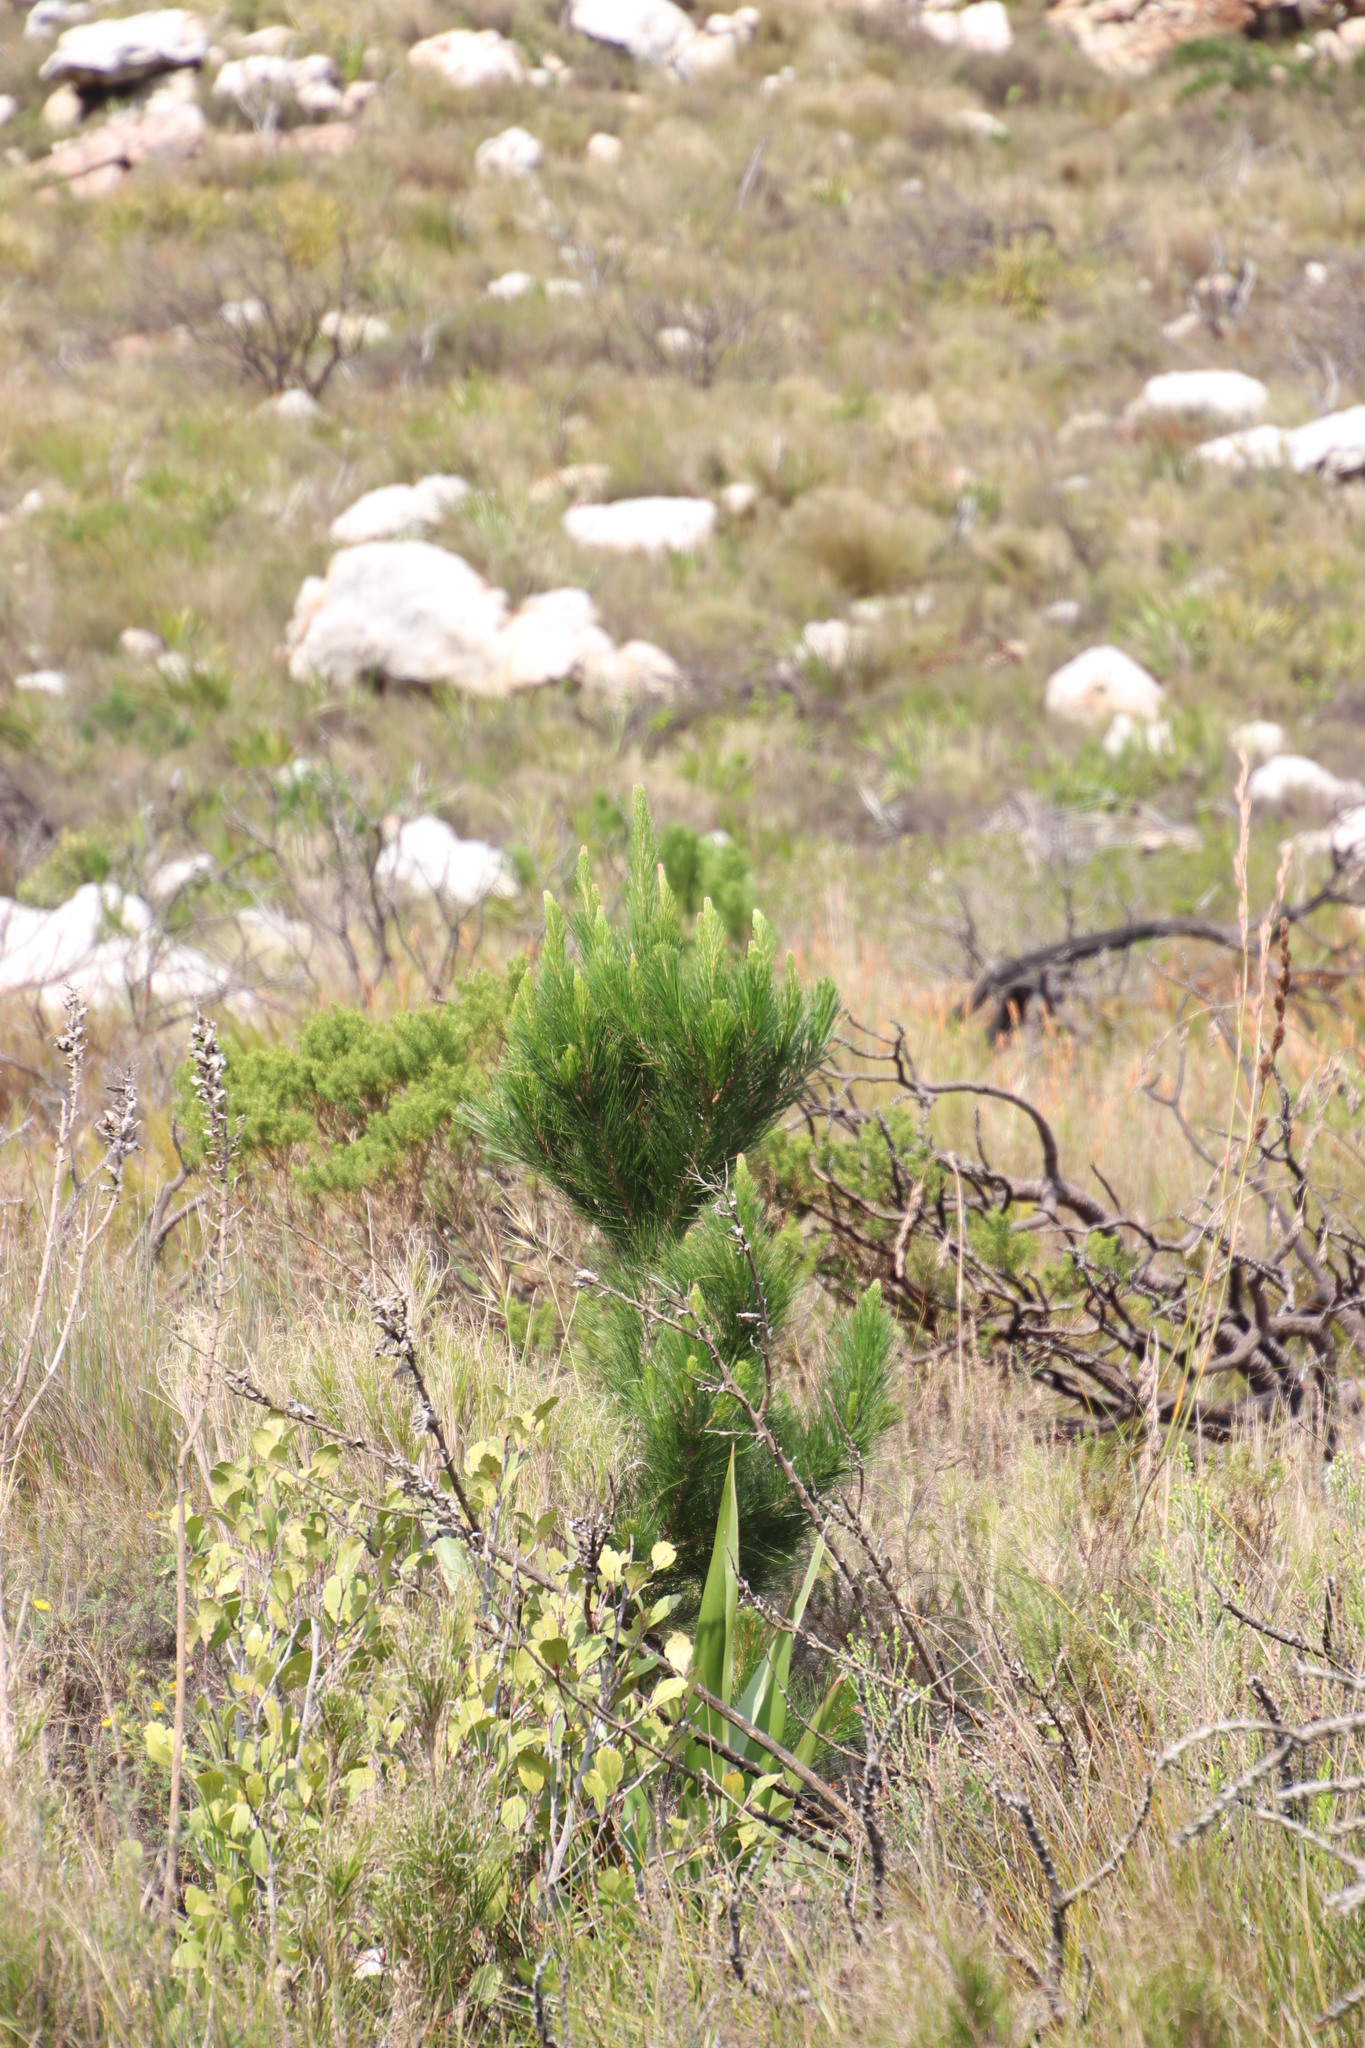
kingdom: Plantae
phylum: Tracheophyta
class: Pinopsida
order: Pinales
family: Pinaceae
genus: Pinus
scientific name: Pinus radiata
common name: Monterey pine
